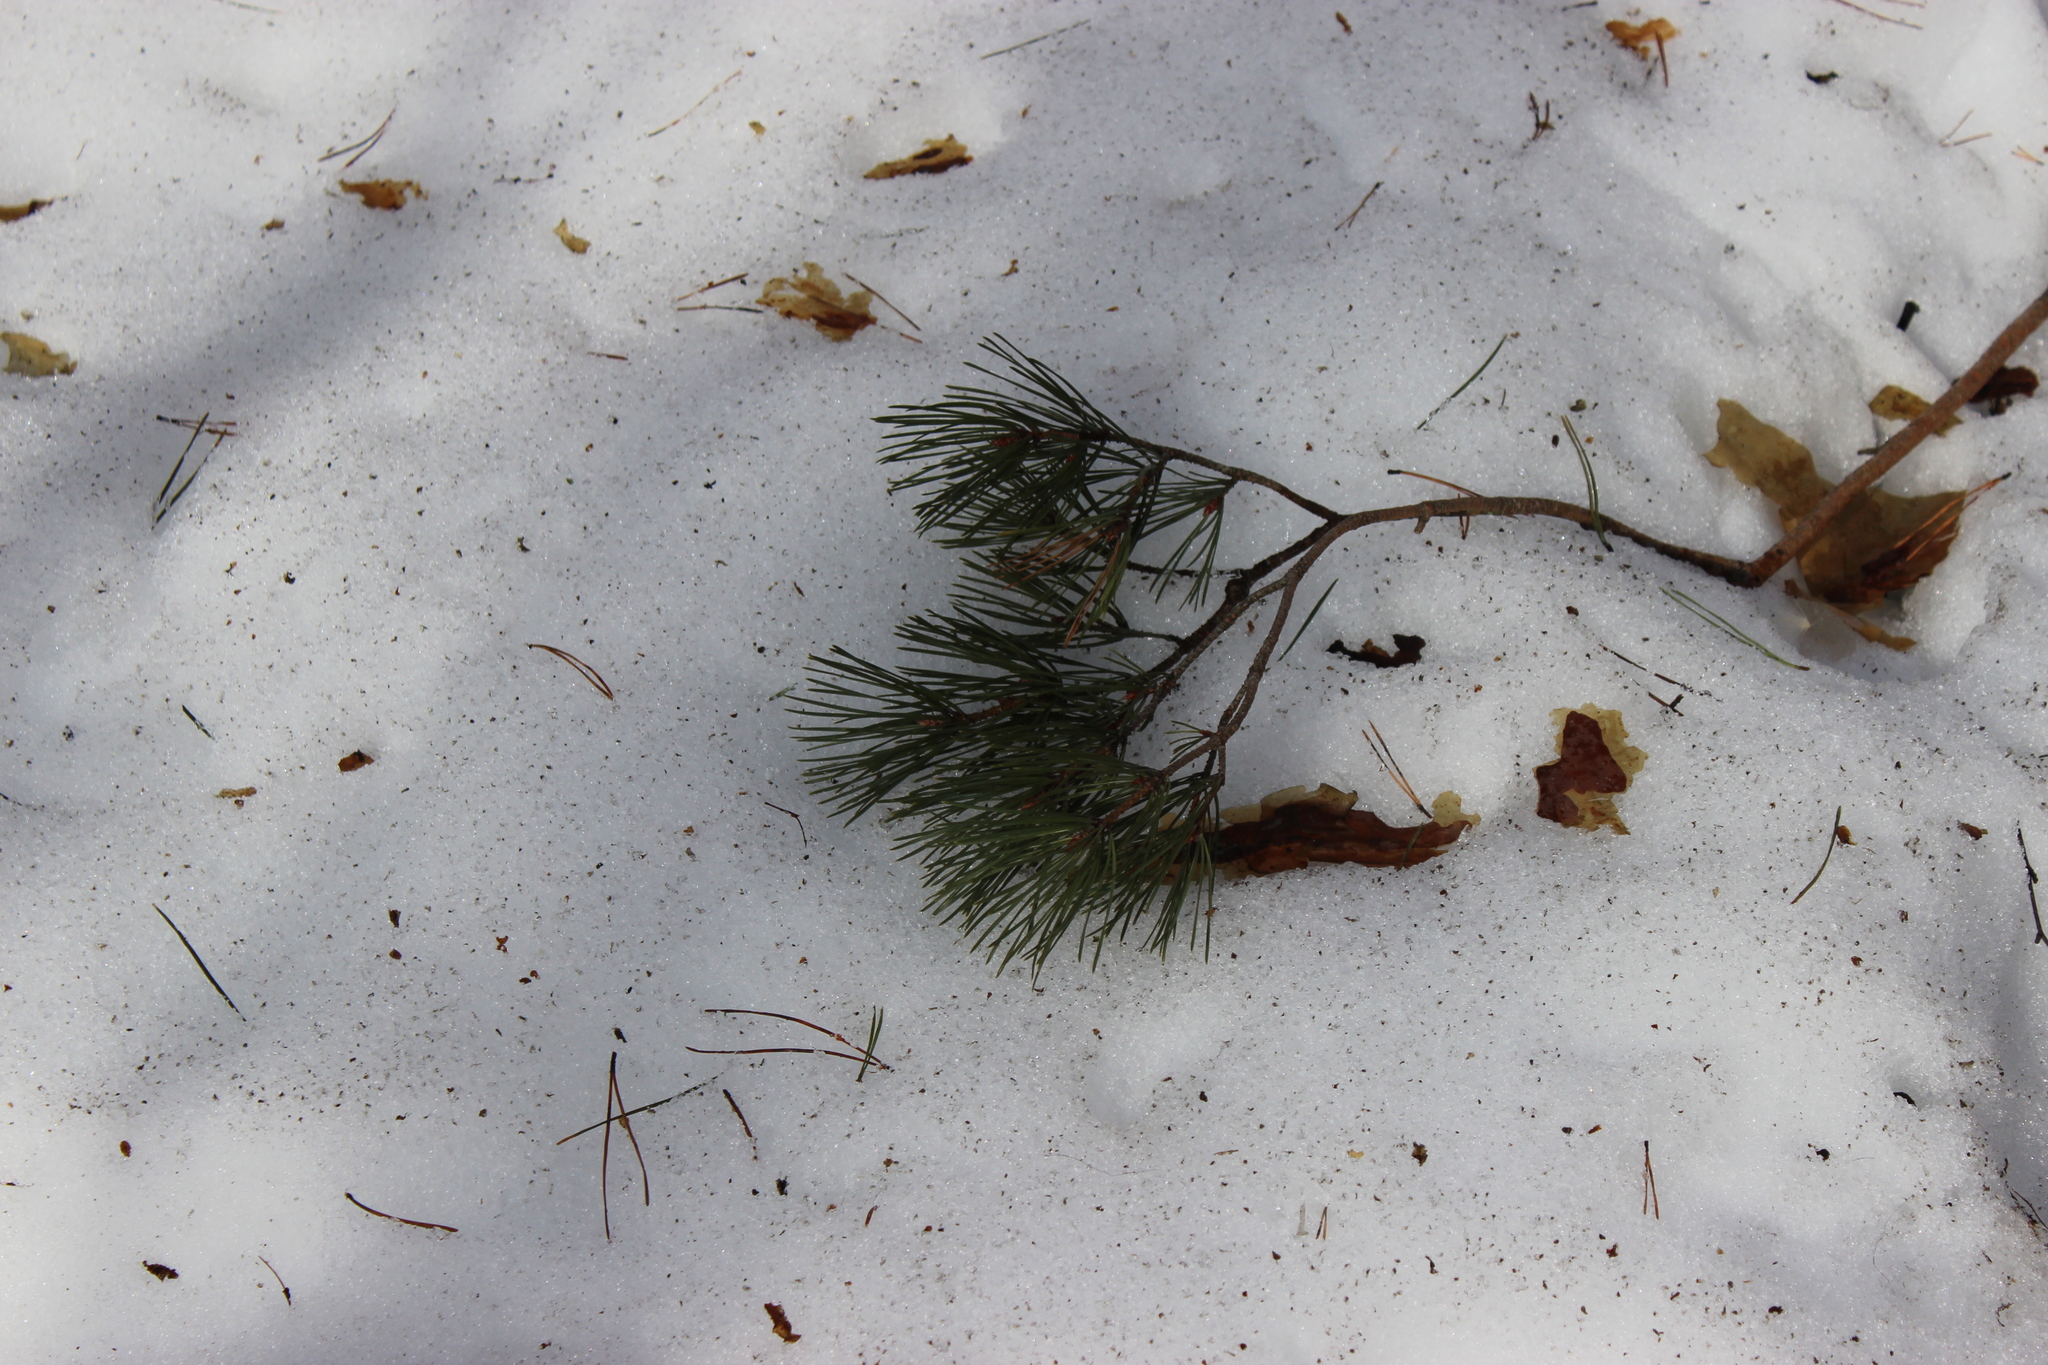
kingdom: Plantae
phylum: Tracheophyta
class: Pinopsida
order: Pinales
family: Pinaceae
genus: Pinus
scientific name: Pinus sylvestris
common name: Scots pine
